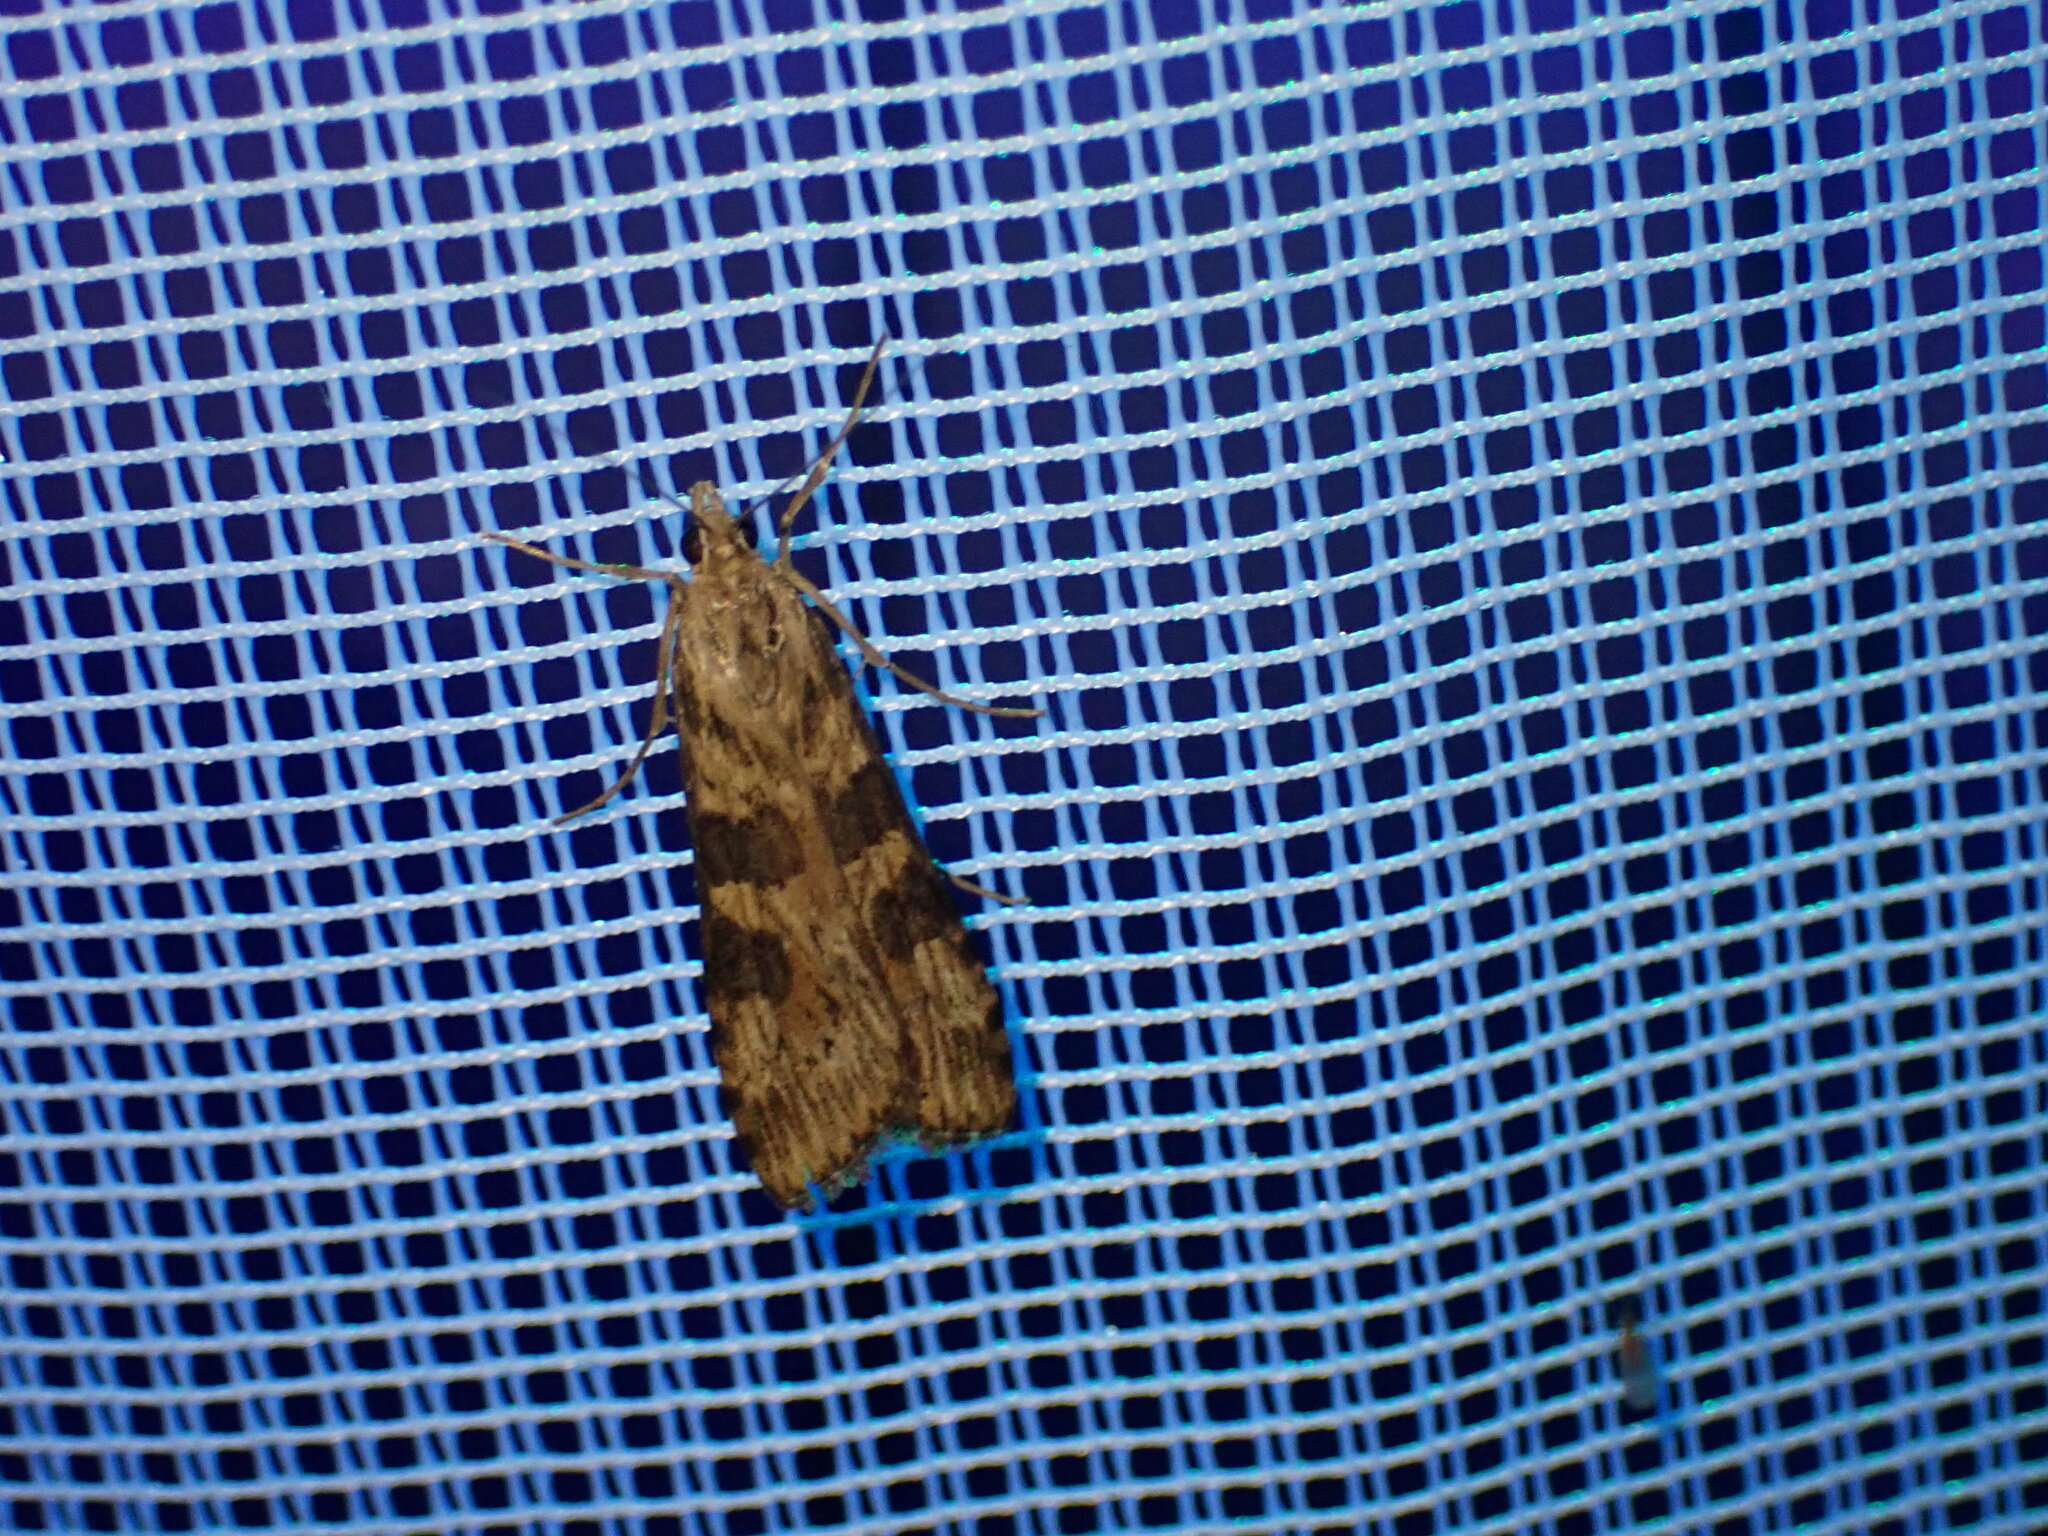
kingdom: Animalia
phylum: Arthropoda
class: Insecta
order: Lepidoptera
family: Crambidae
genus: Nomophila
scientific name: Nomophila nearctica
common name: American rush veneer
